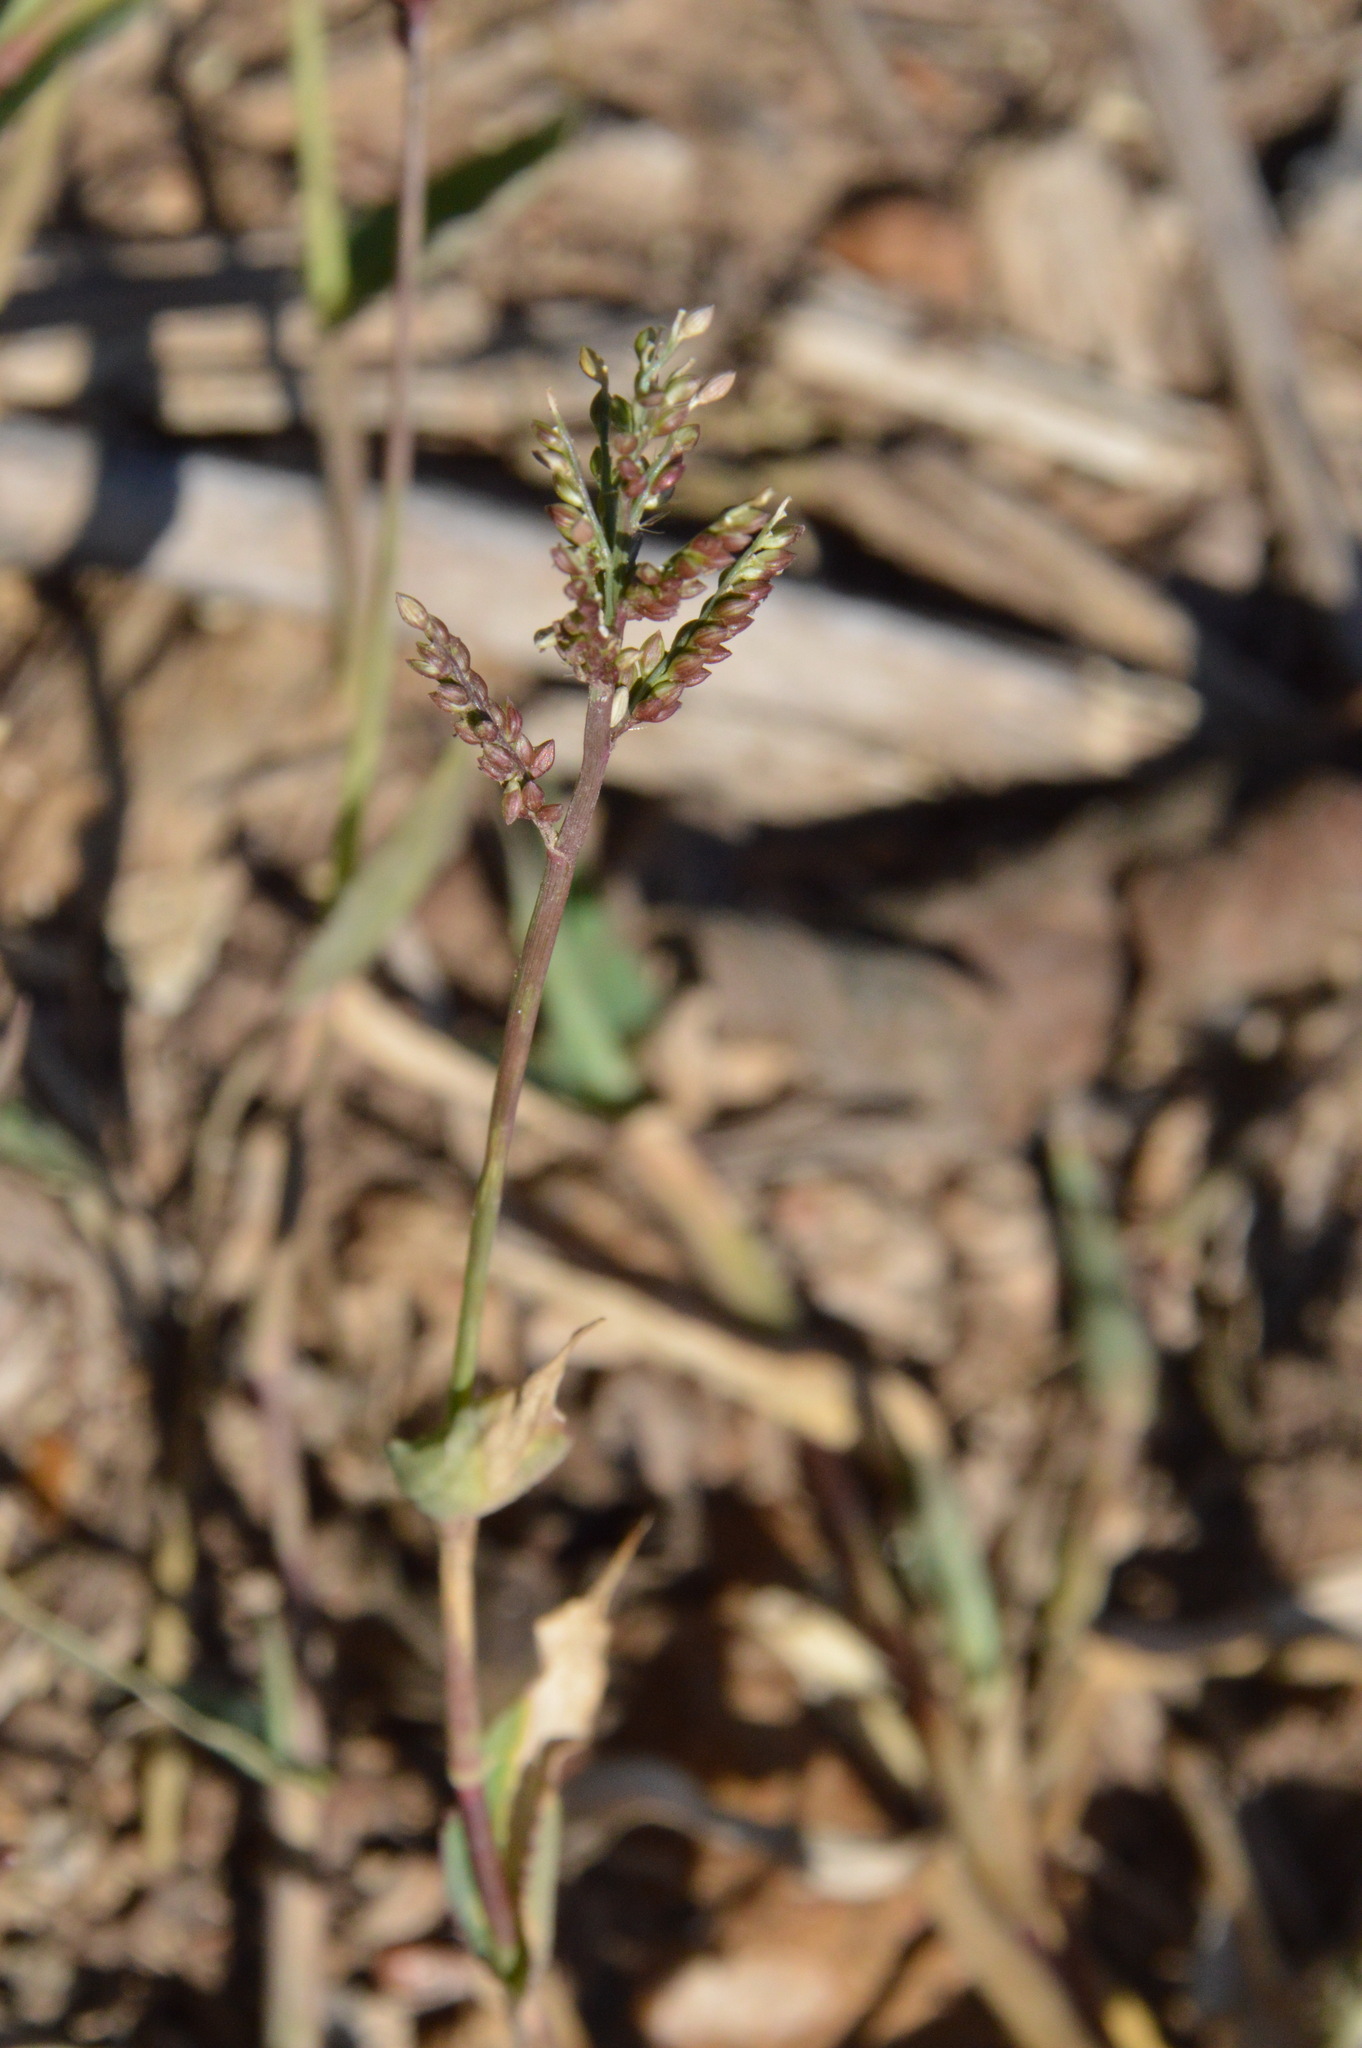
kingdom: Plantae
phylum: Tracheophyta
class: Liliopsida
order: Poales
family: Poaceae
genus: Urochloa
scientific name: Urochloa reptans
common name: Sprawling signalgrass
